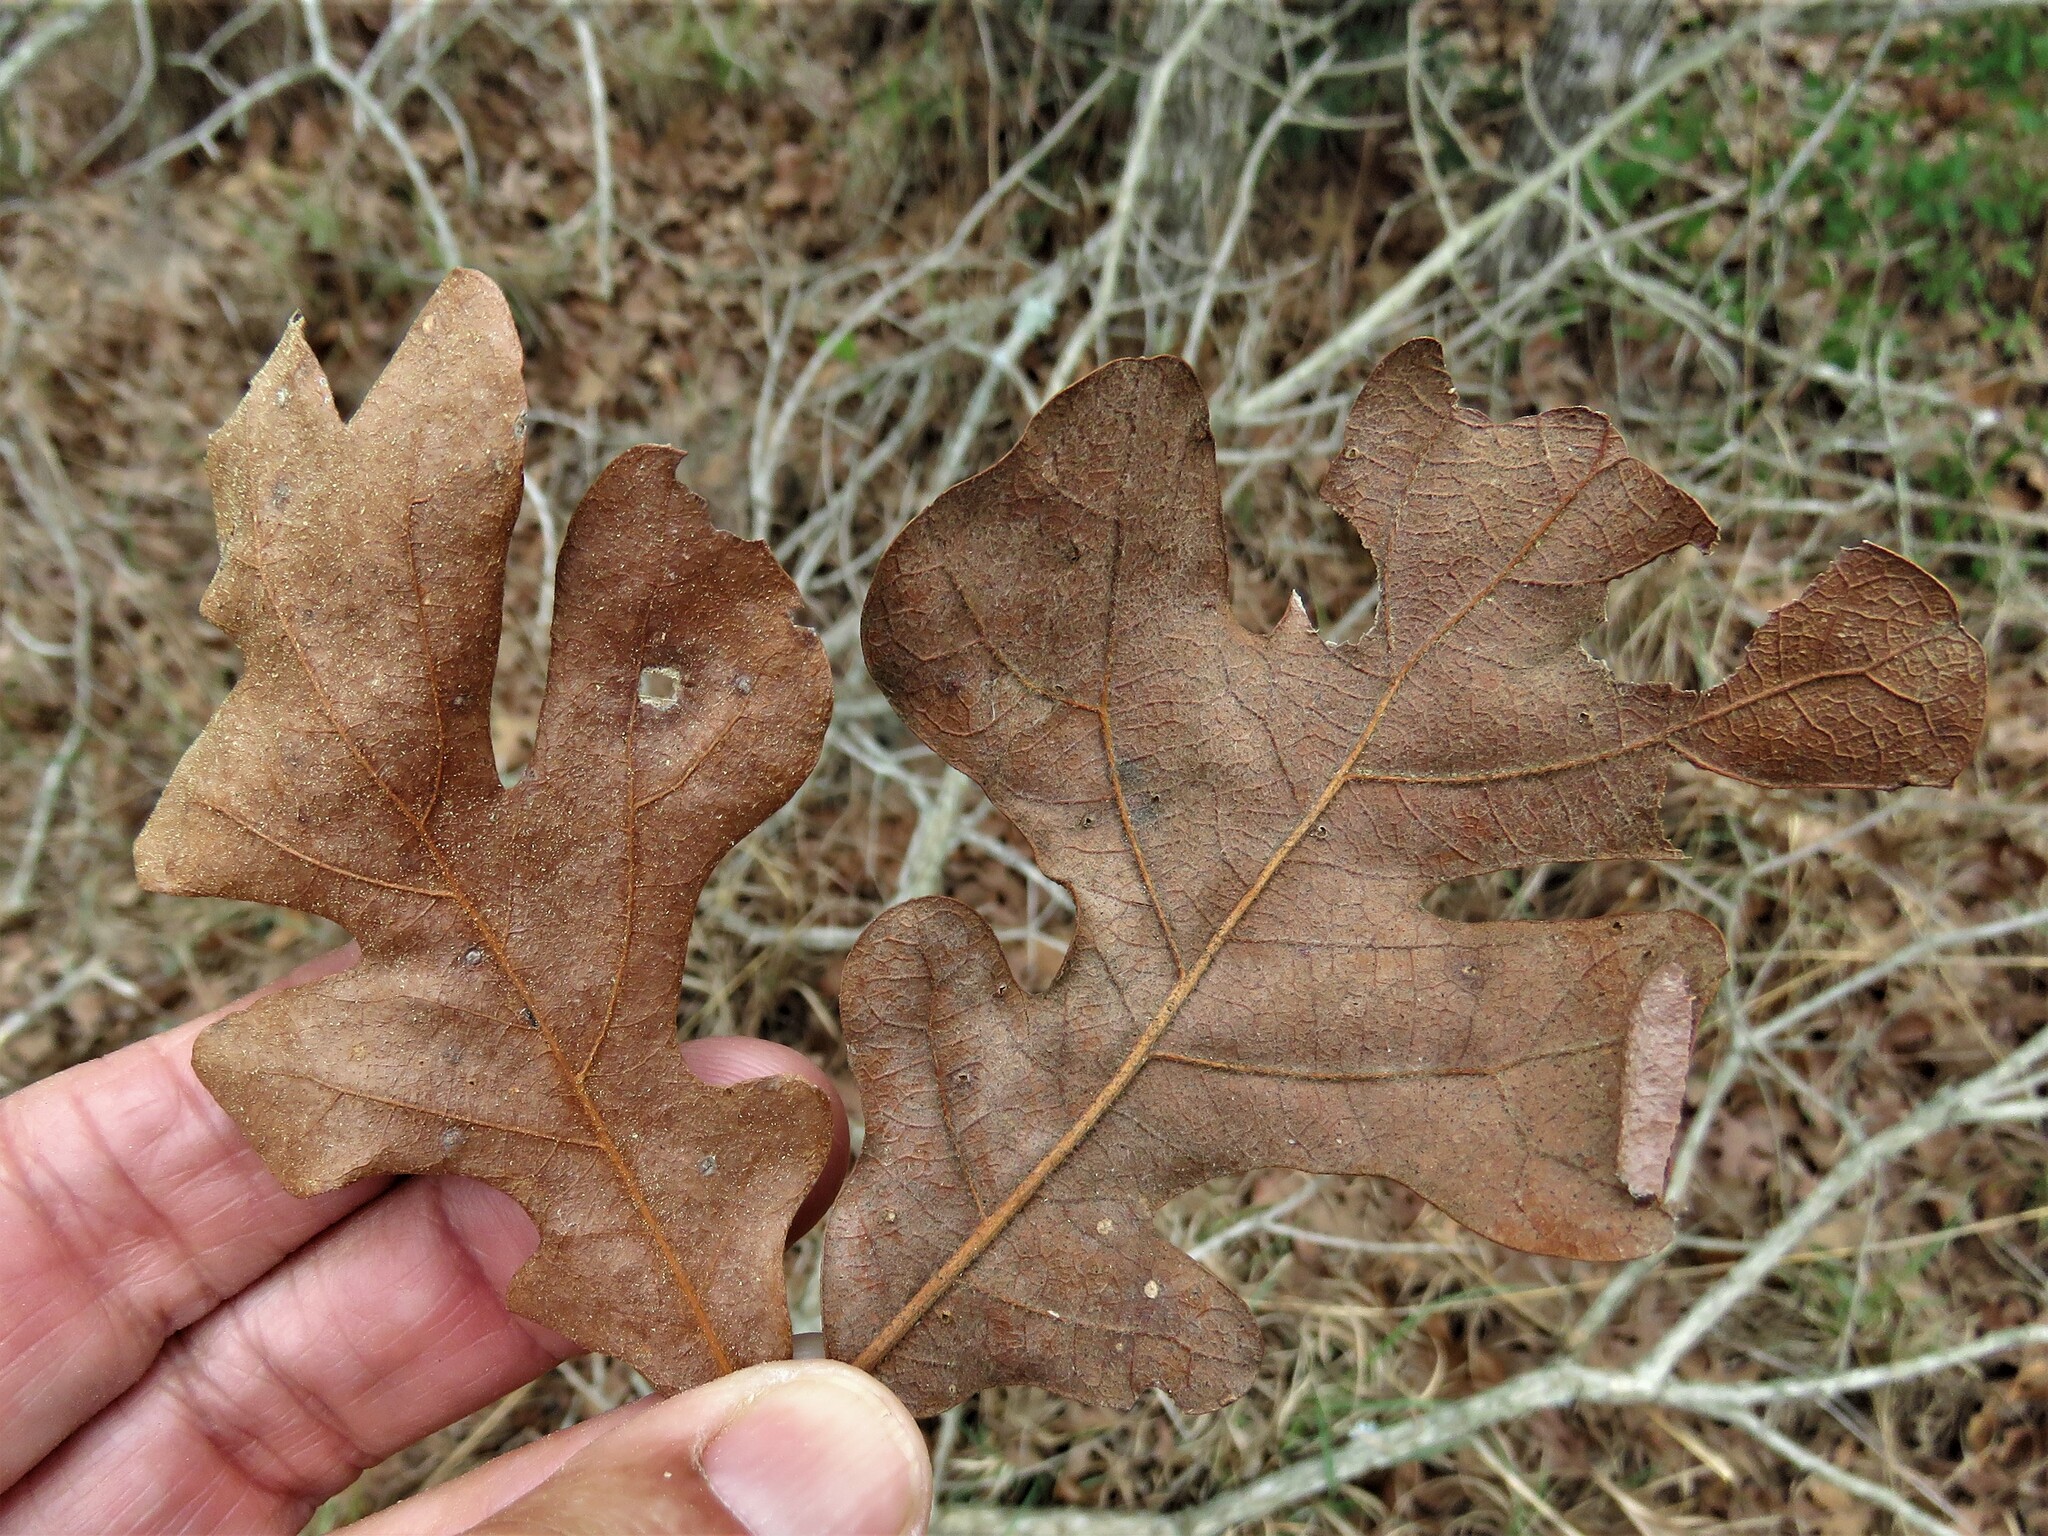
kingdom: Animalia
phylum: Arthropoda
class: Insecta
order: Hymenoptera
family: Cynipidae
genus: Disholcaspis
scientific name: Disholcaspis
